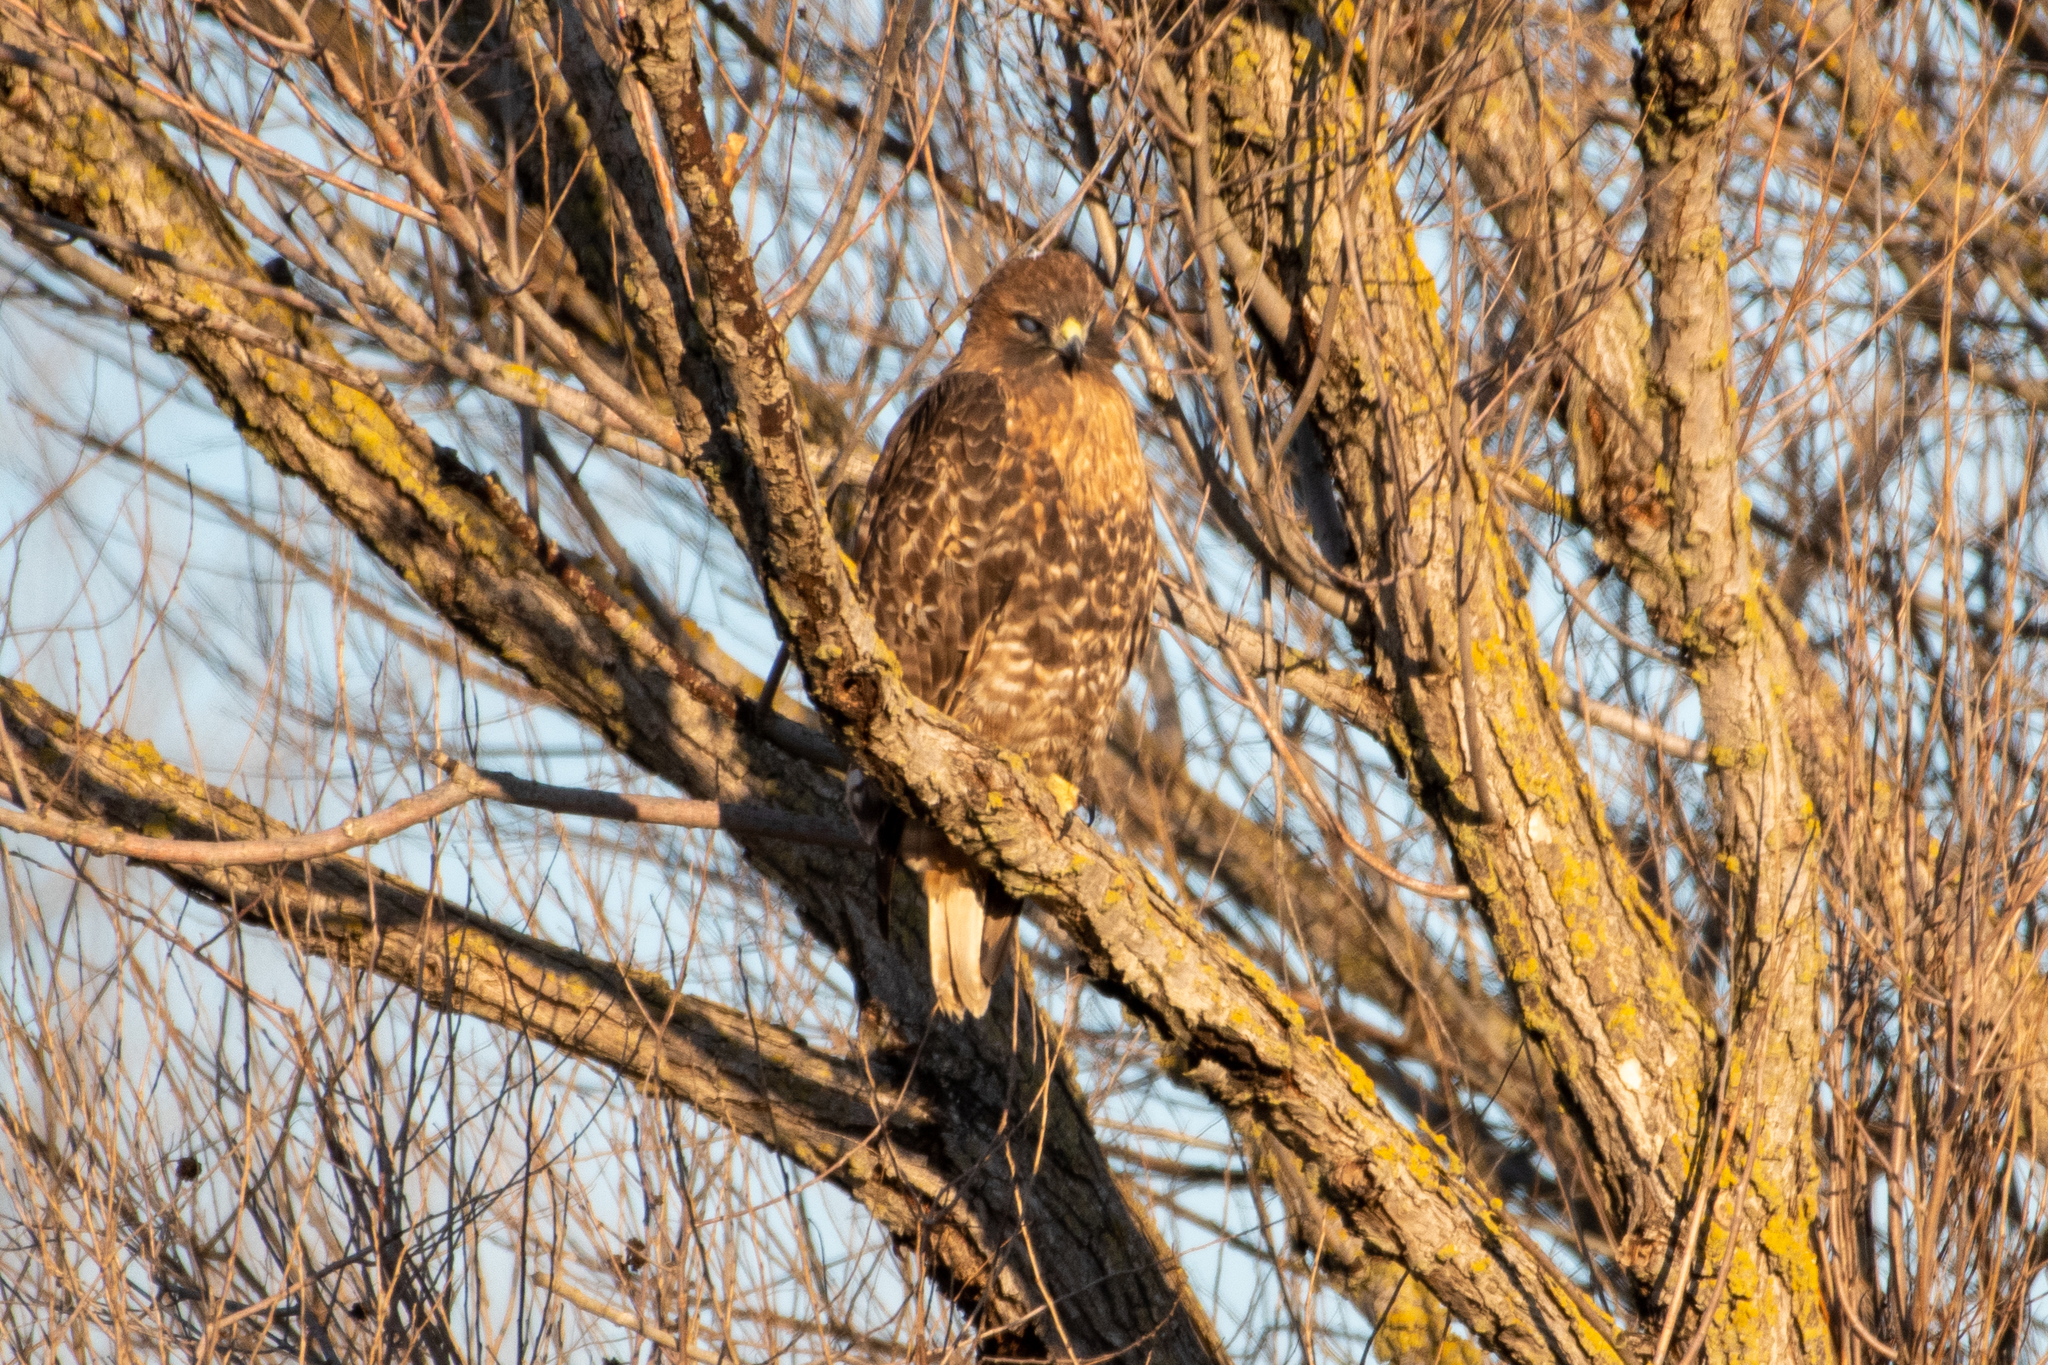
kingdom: Animalia
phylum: Chordata
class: Aves
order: Accipitriformes
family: Accipitridae
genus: Buteo
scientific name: Buteo jamaicensis
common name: Red-tailed hawk
